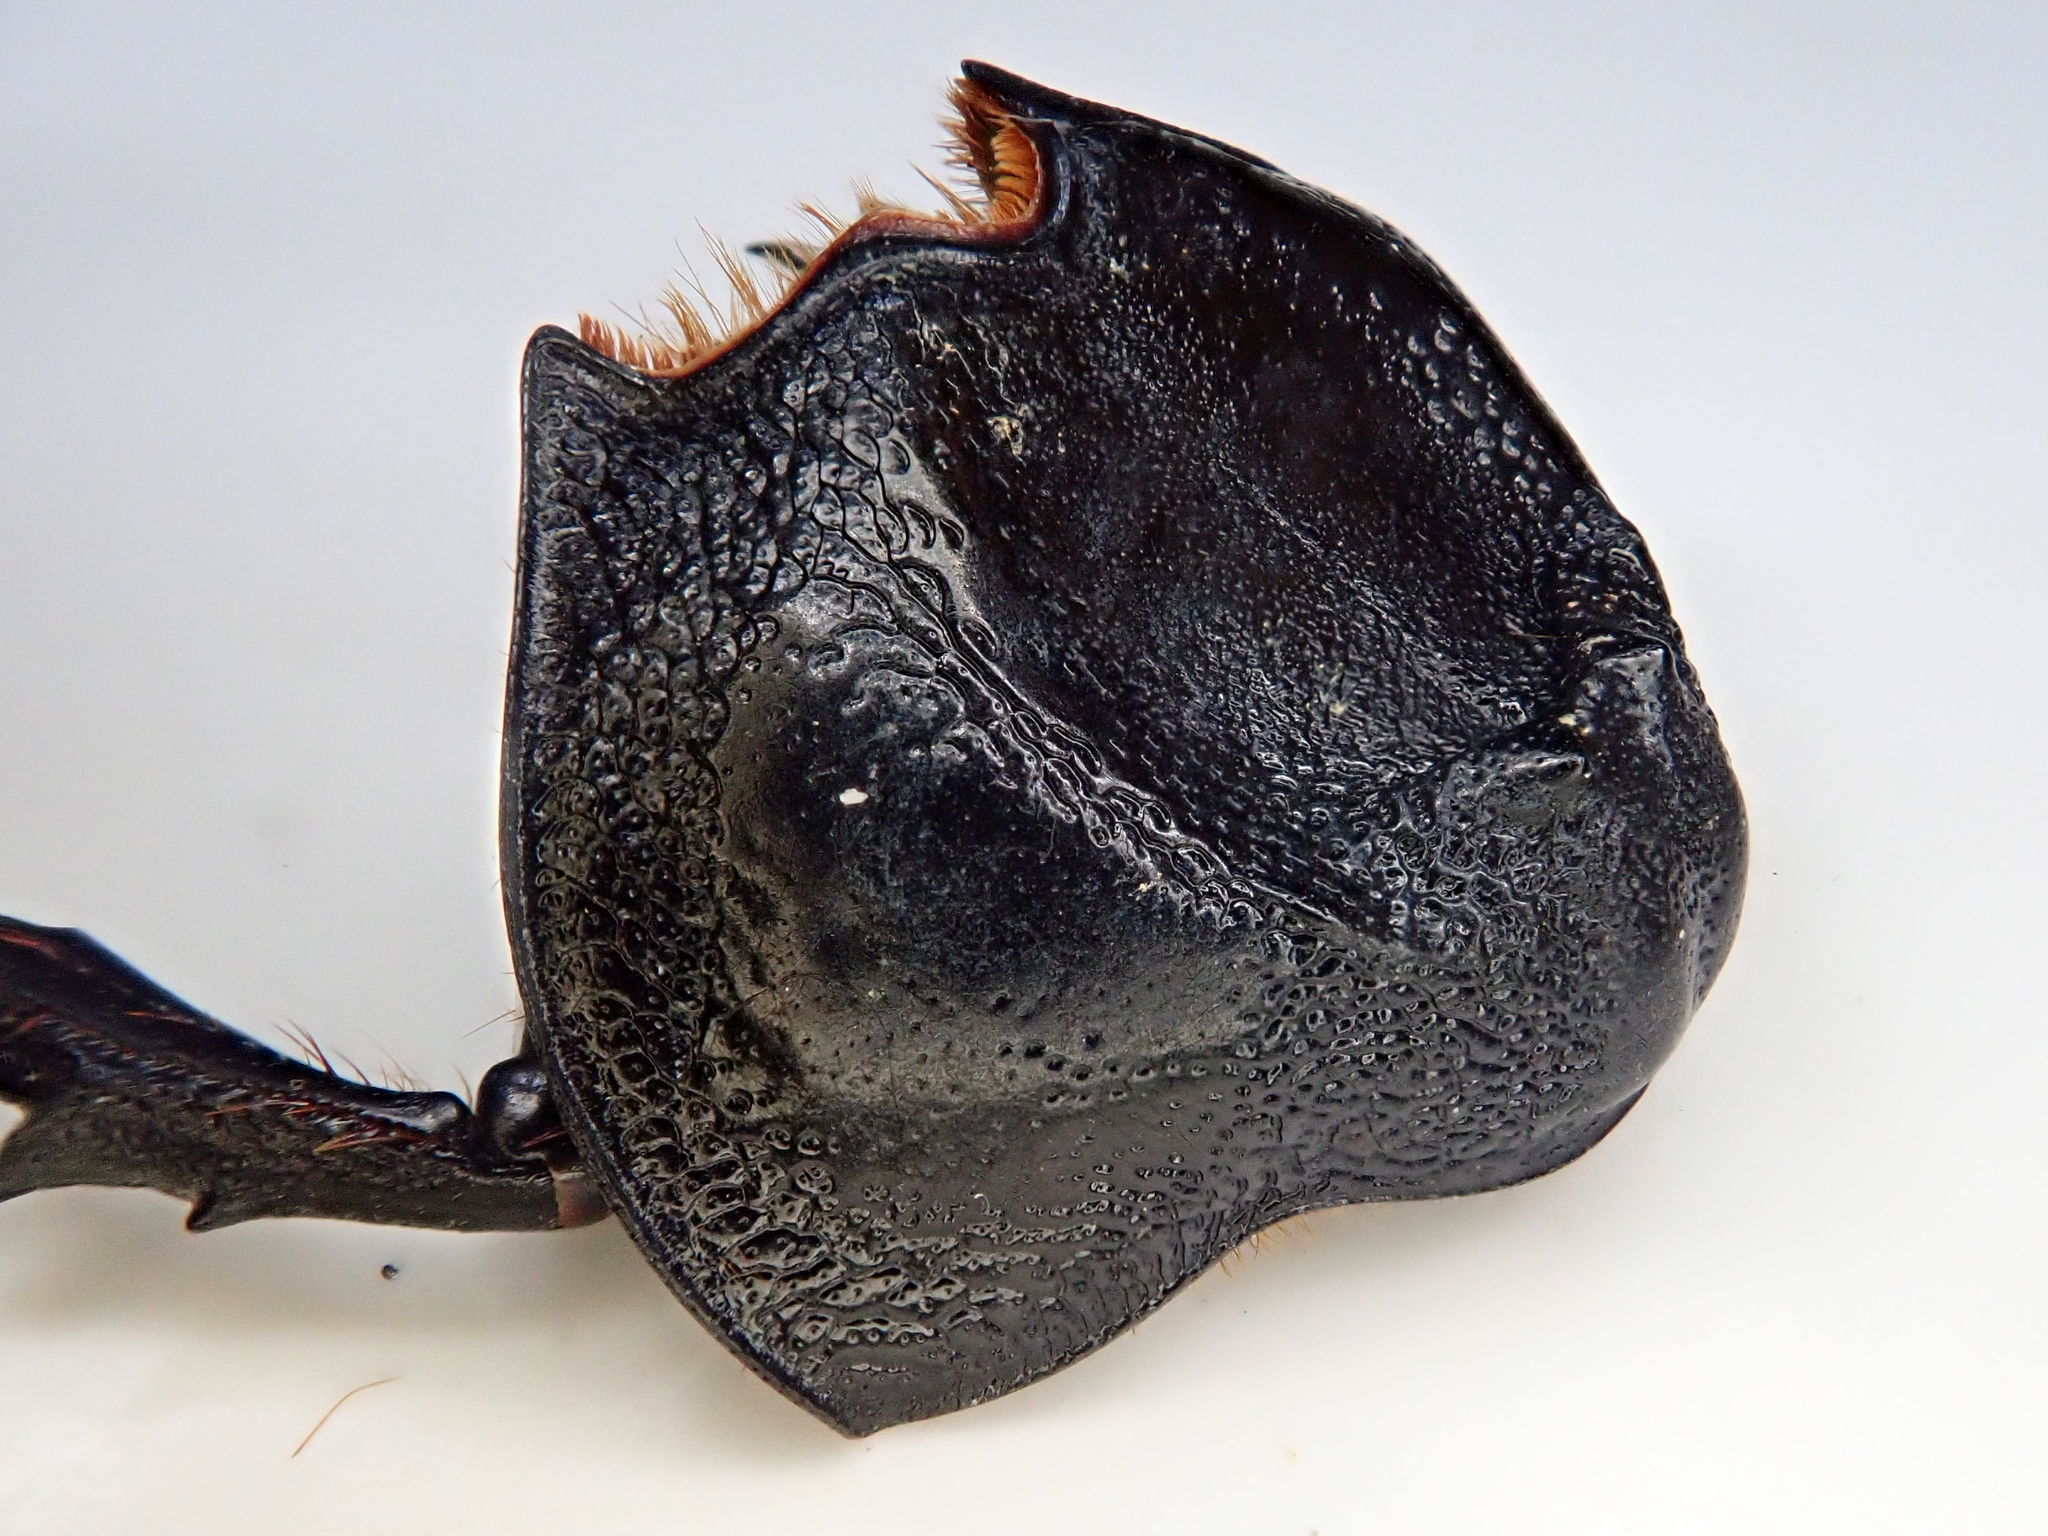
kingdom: Animalia
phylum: Arthropoda
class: Insecta
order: Coleoptera
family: Scarabaeidae
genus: Enema
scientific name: Enema pan
